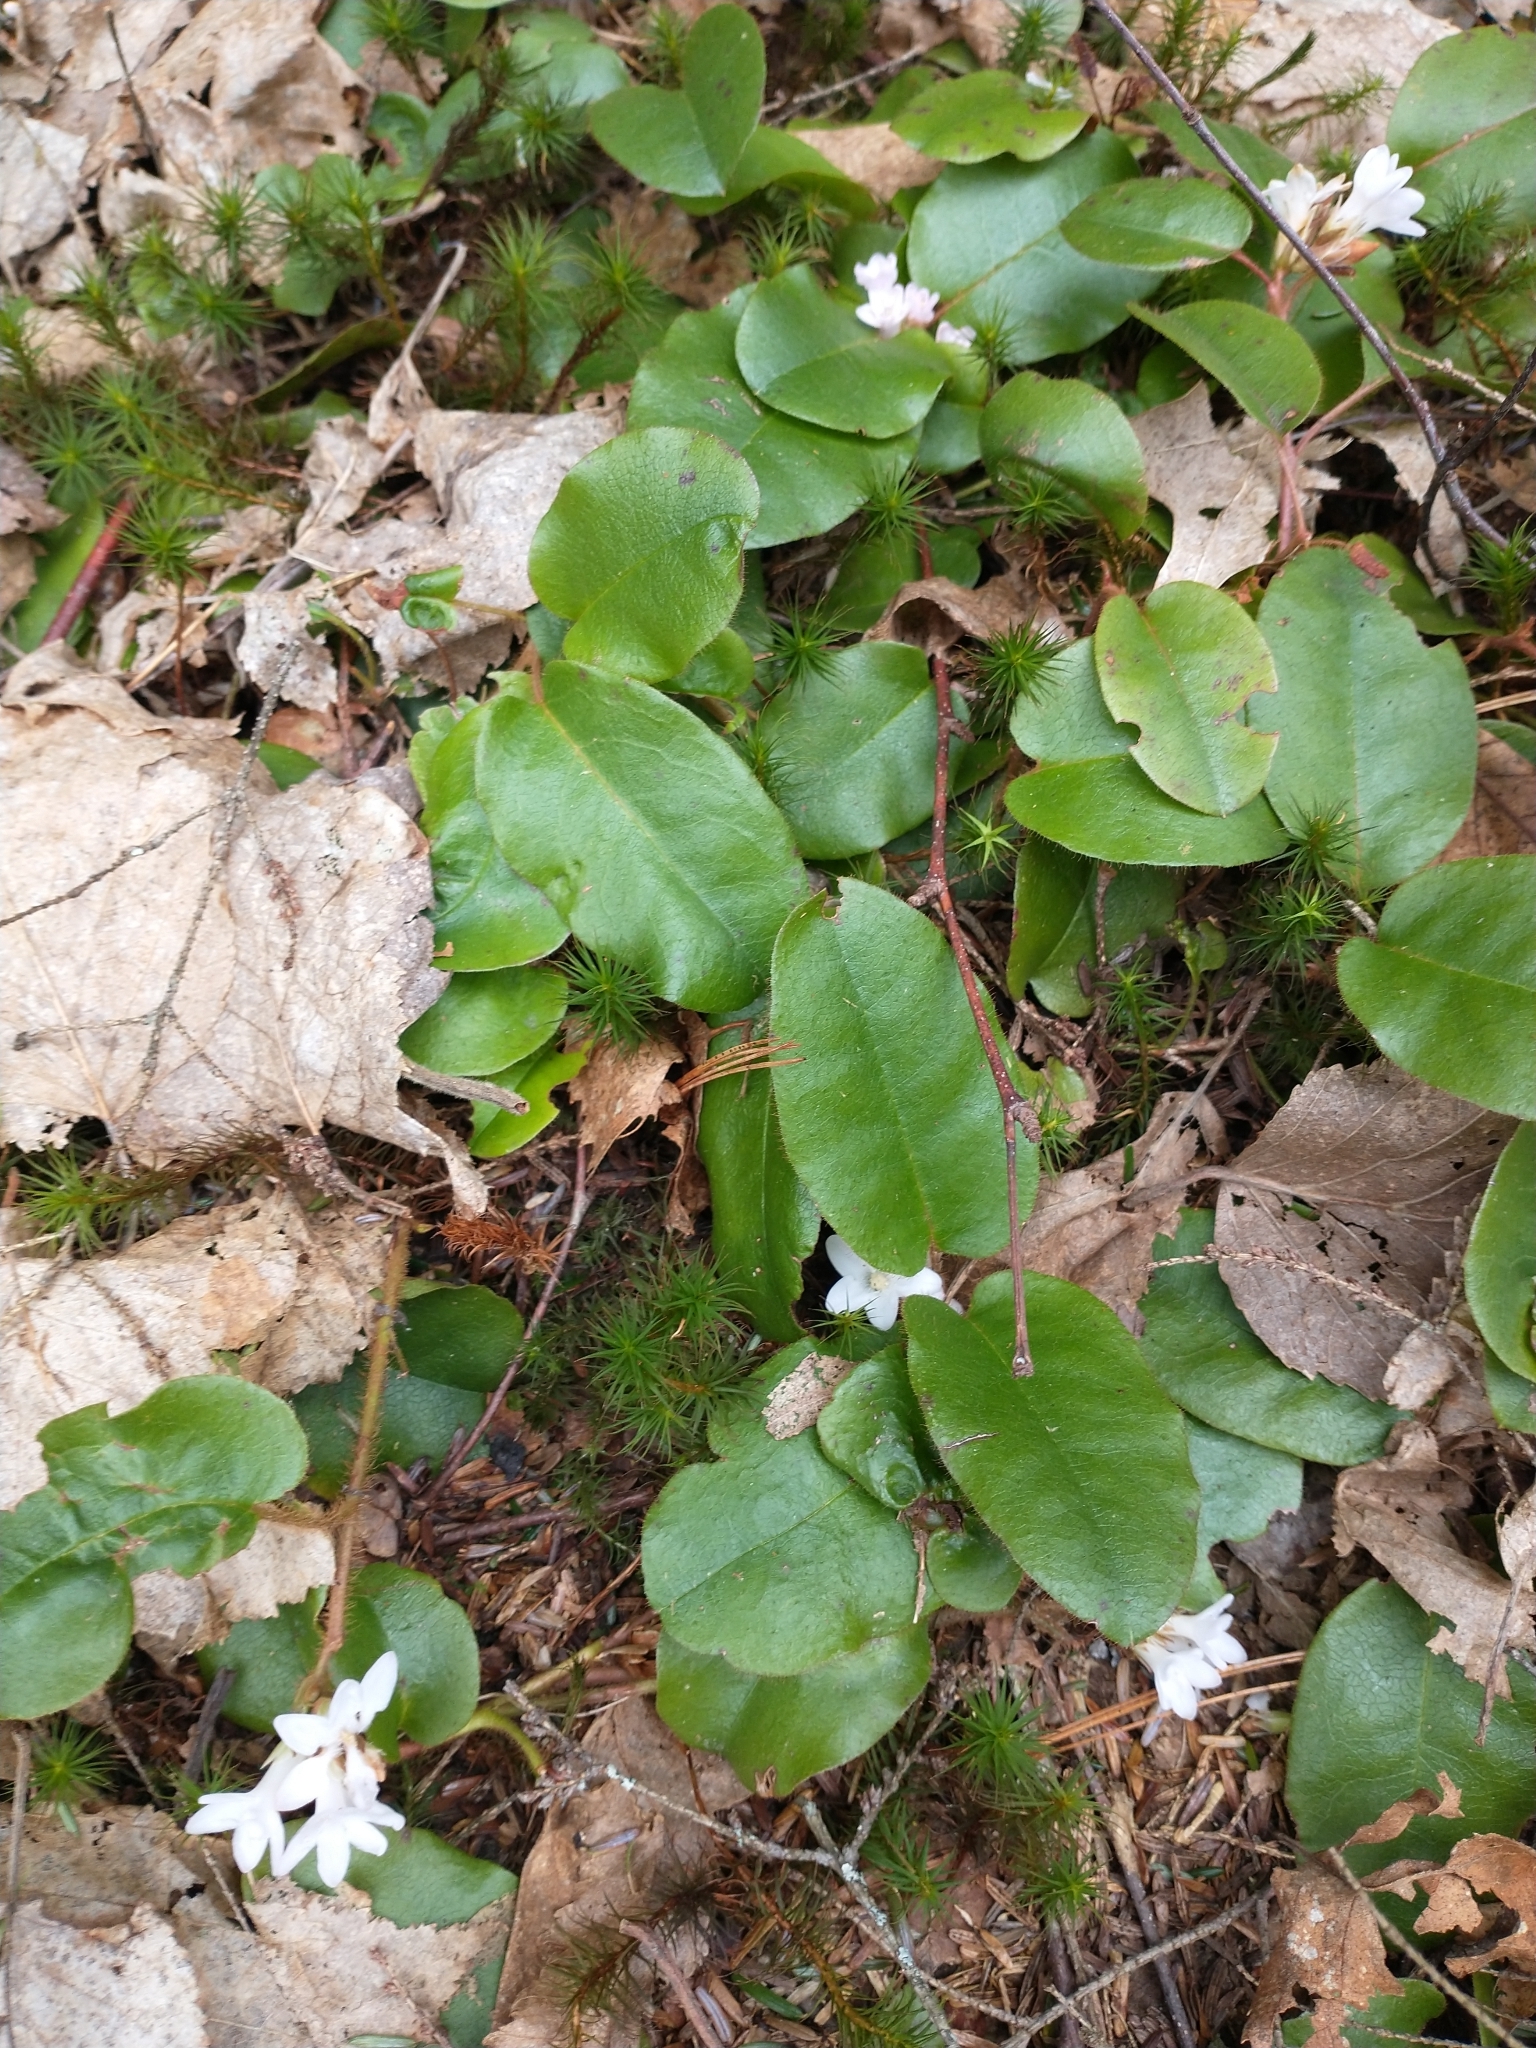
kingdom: Plantae
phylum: Tracheophyta
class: Magnoliopsida
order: Ericales
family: Ericaceae
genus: Epigaea
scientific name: Epigaea repens
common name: Gravelroot
